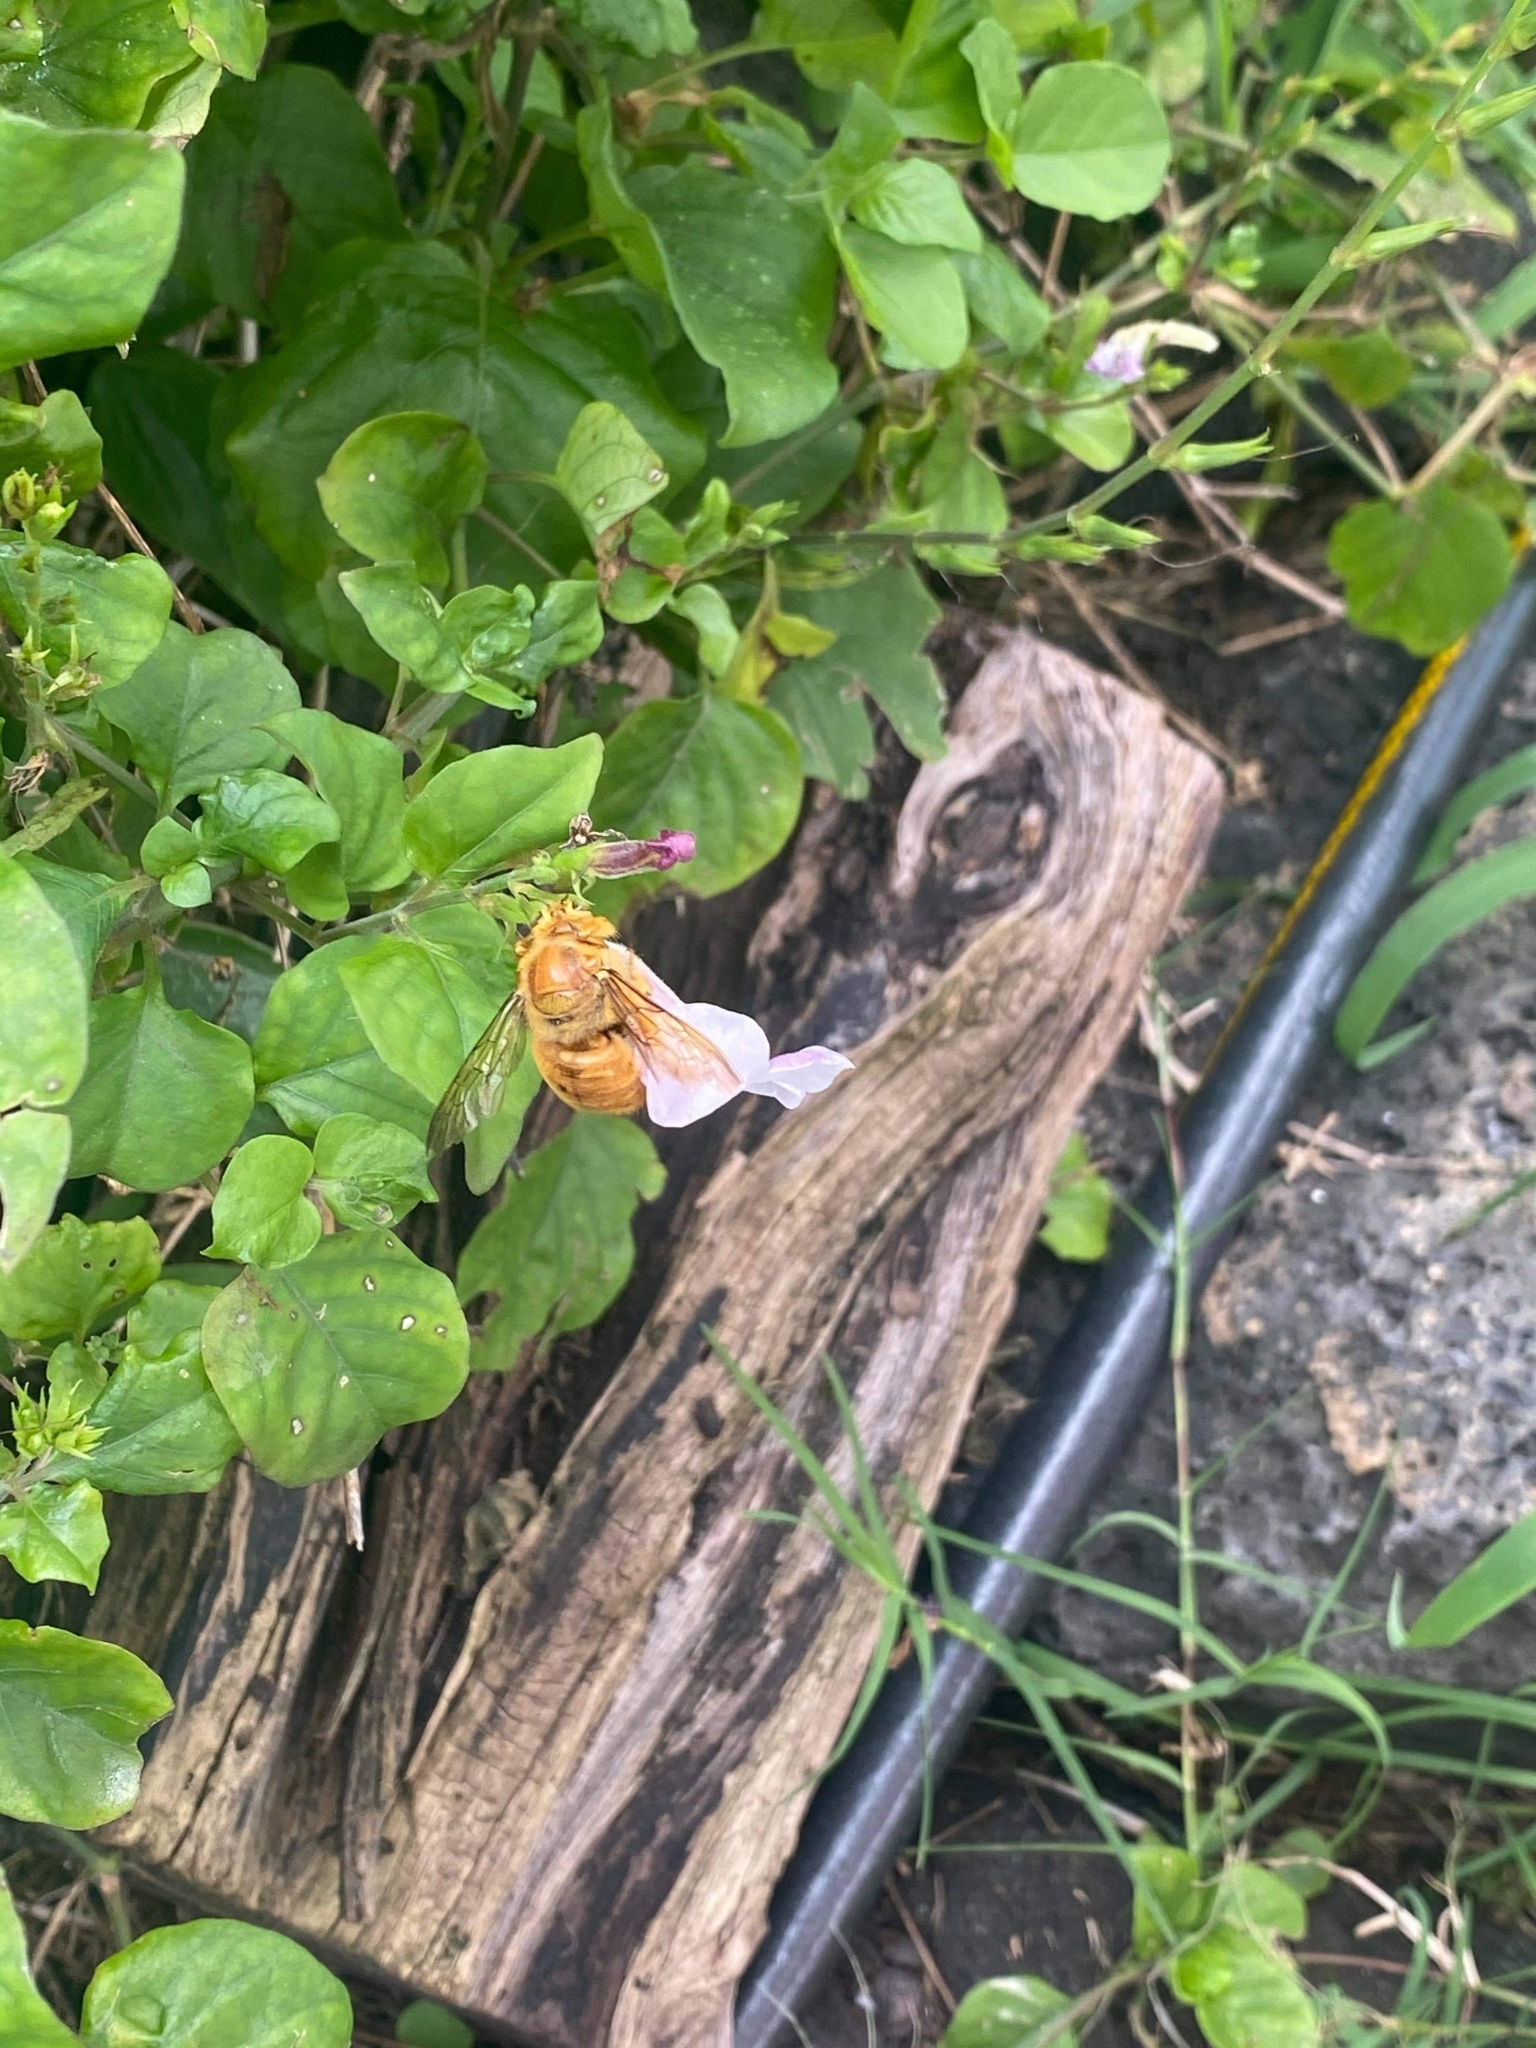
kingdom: Animalia
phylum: Arthropoda
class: Insecta
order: Hymenoptera
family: Apidae
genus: Xylocopa
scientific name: Xylocopa sonorina
